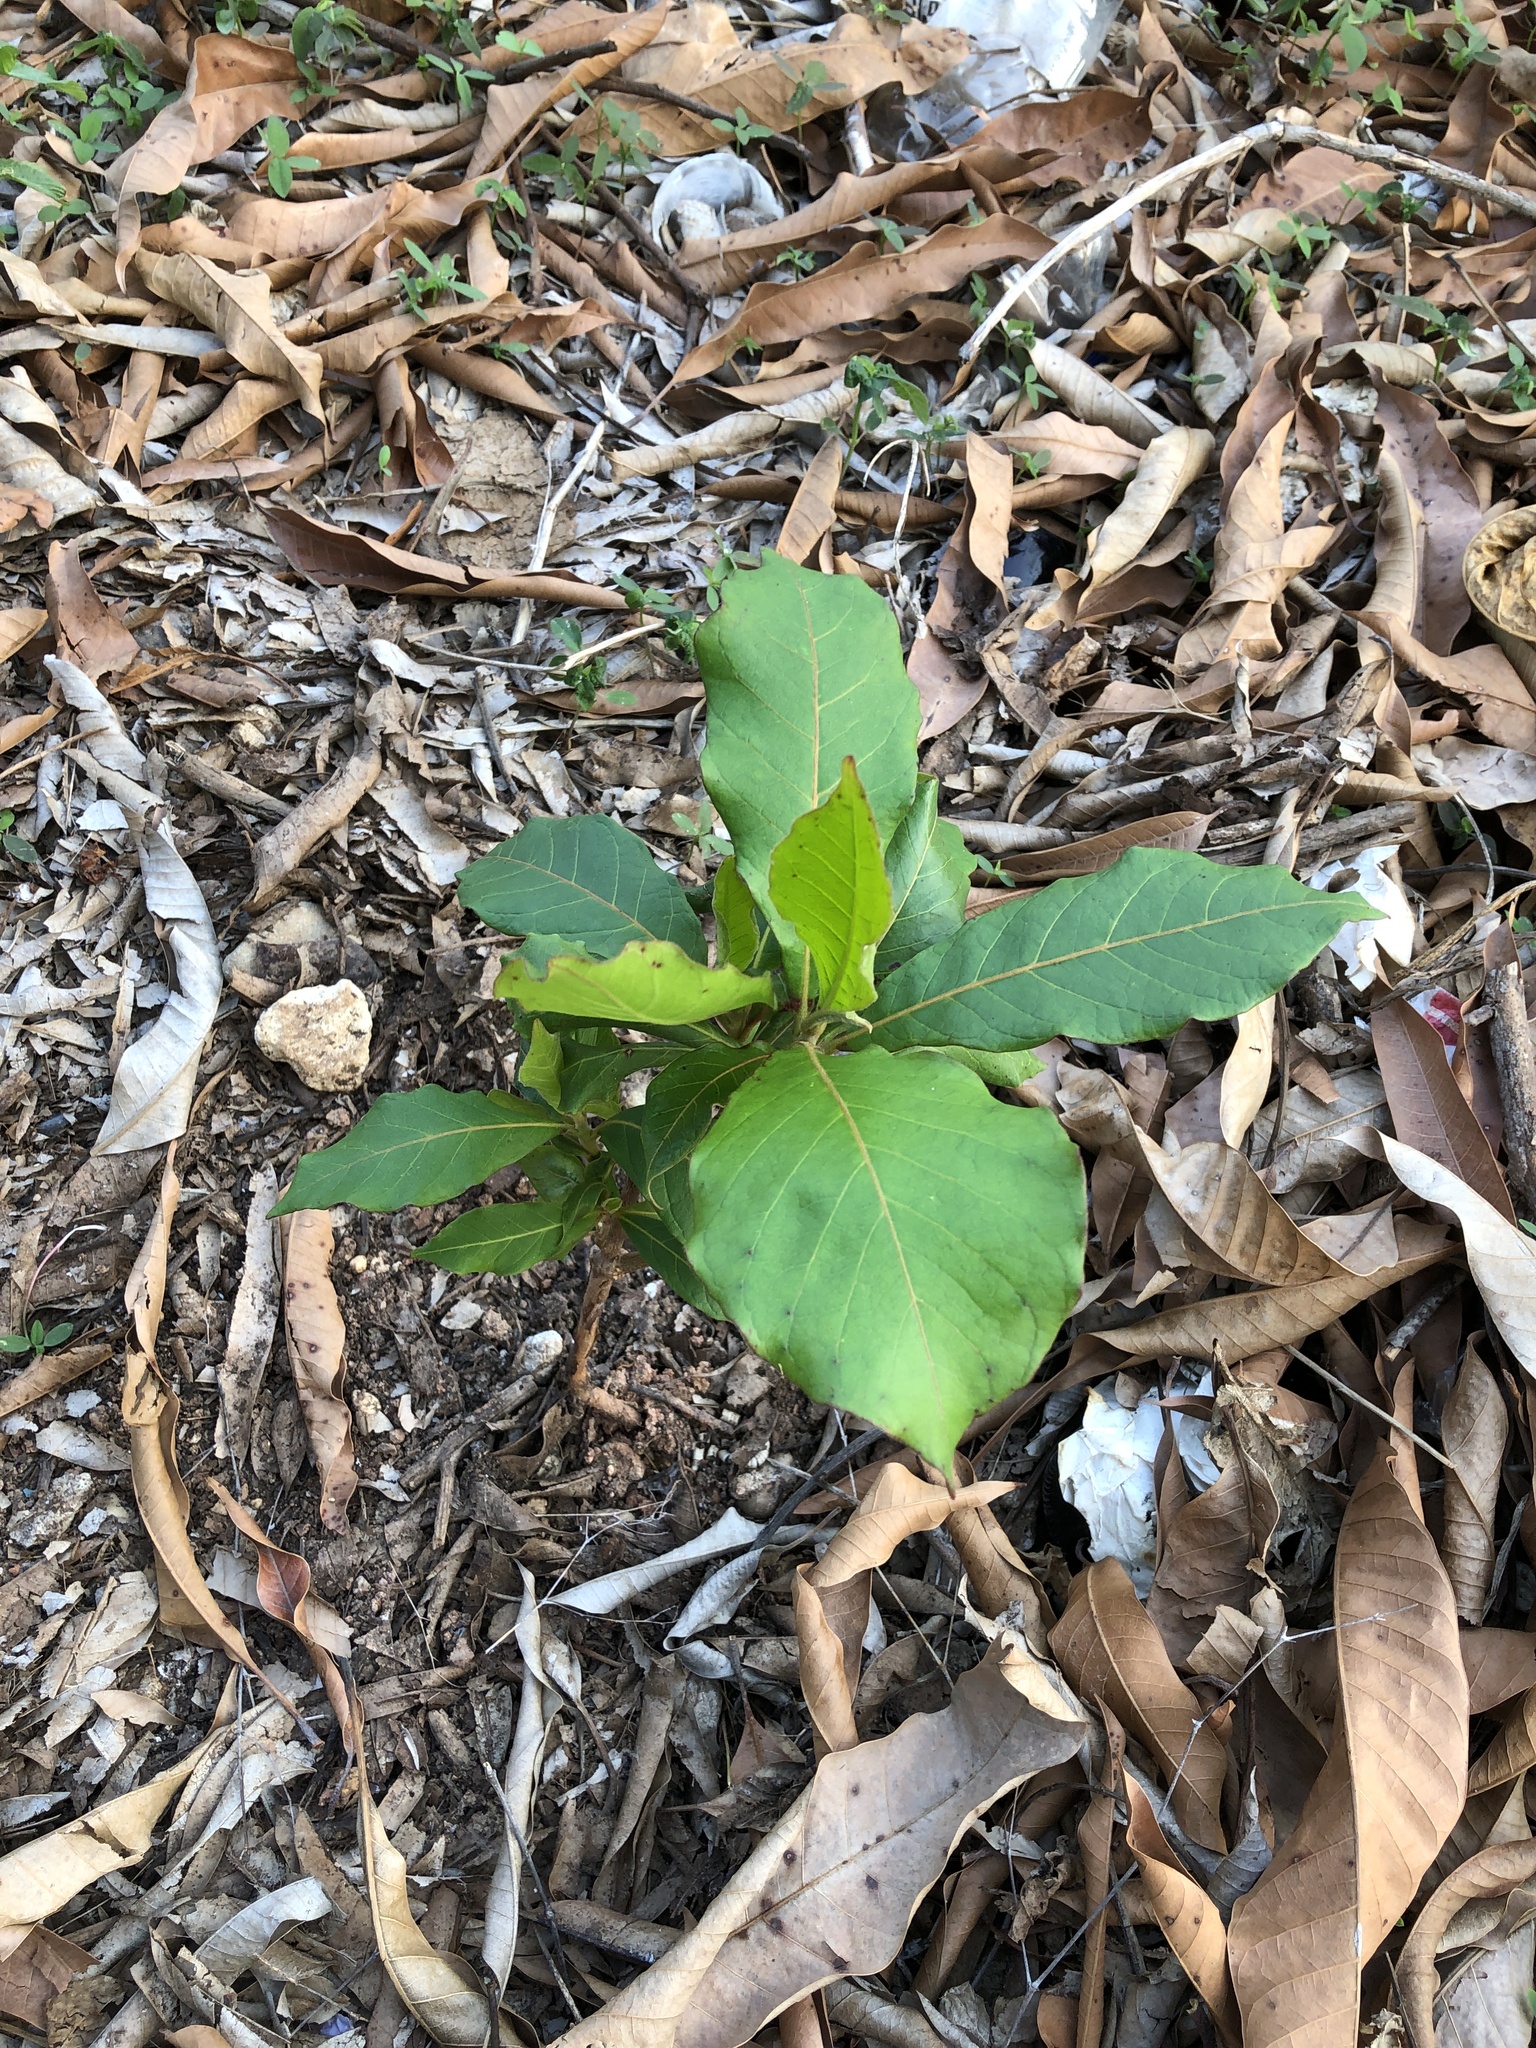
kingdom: Plantae
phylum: Tracheophyta
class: Magnoliopsida
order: Myrtales
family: Combretaceae
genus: Terminalia
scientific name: Terminalia catappa
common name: Tropical almond
